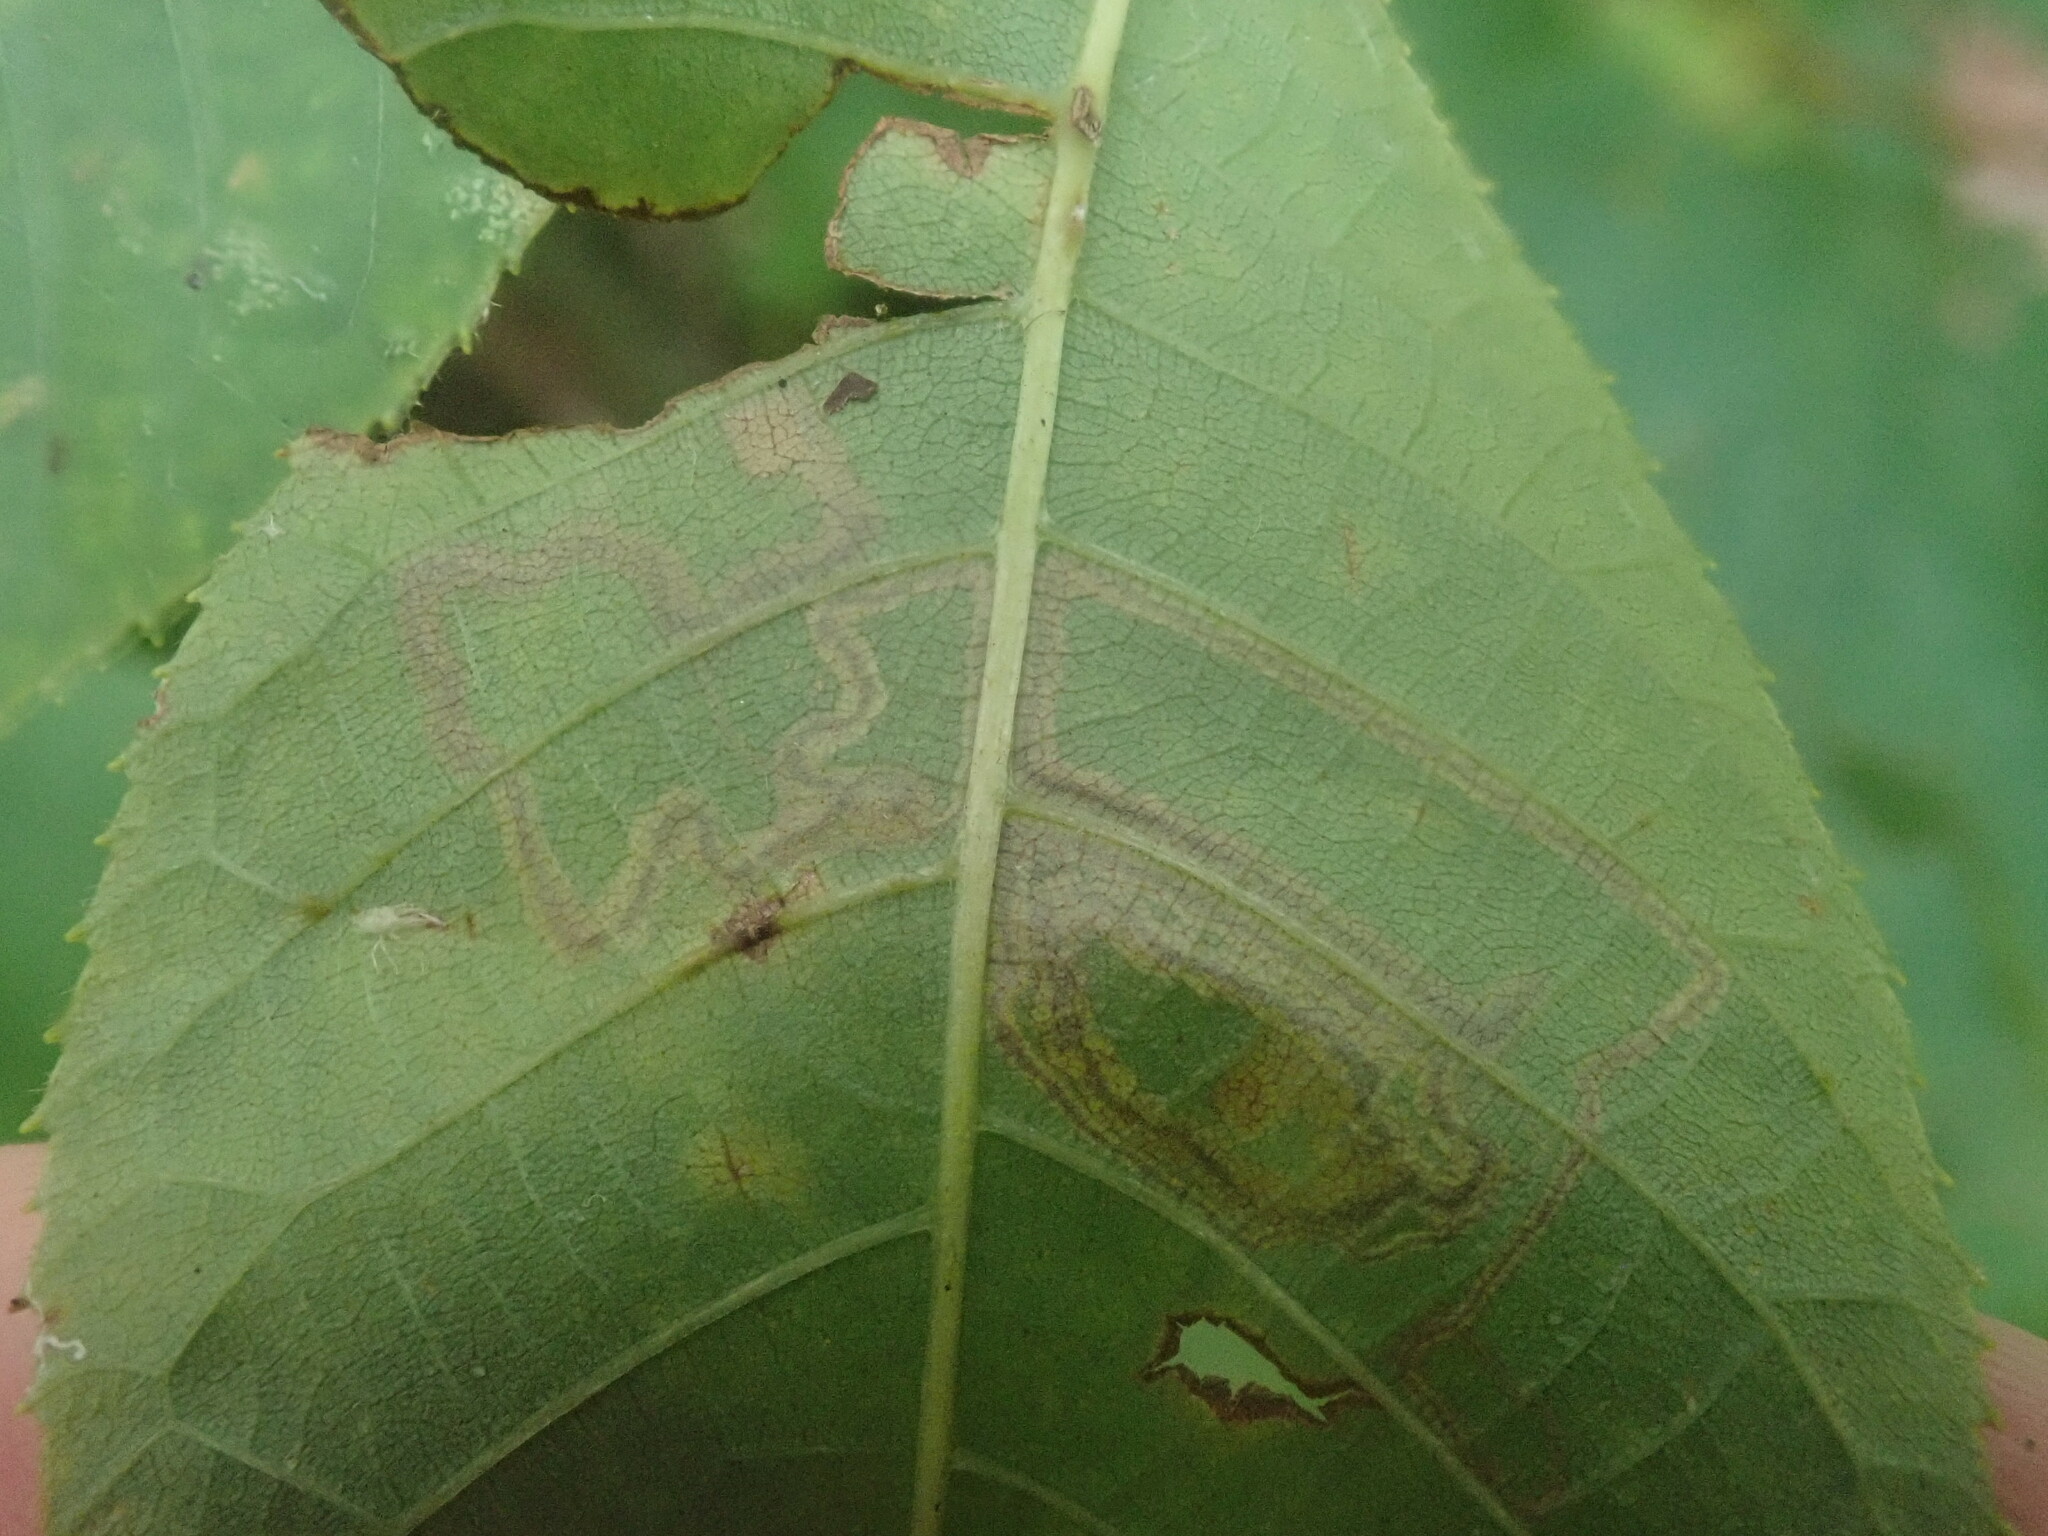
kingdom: Animalia
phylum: Arthropoda
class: Insecta
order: Lepidoptera
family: Nepticulidae
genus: Stigmella
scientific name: Stigmella caryaefoliella
